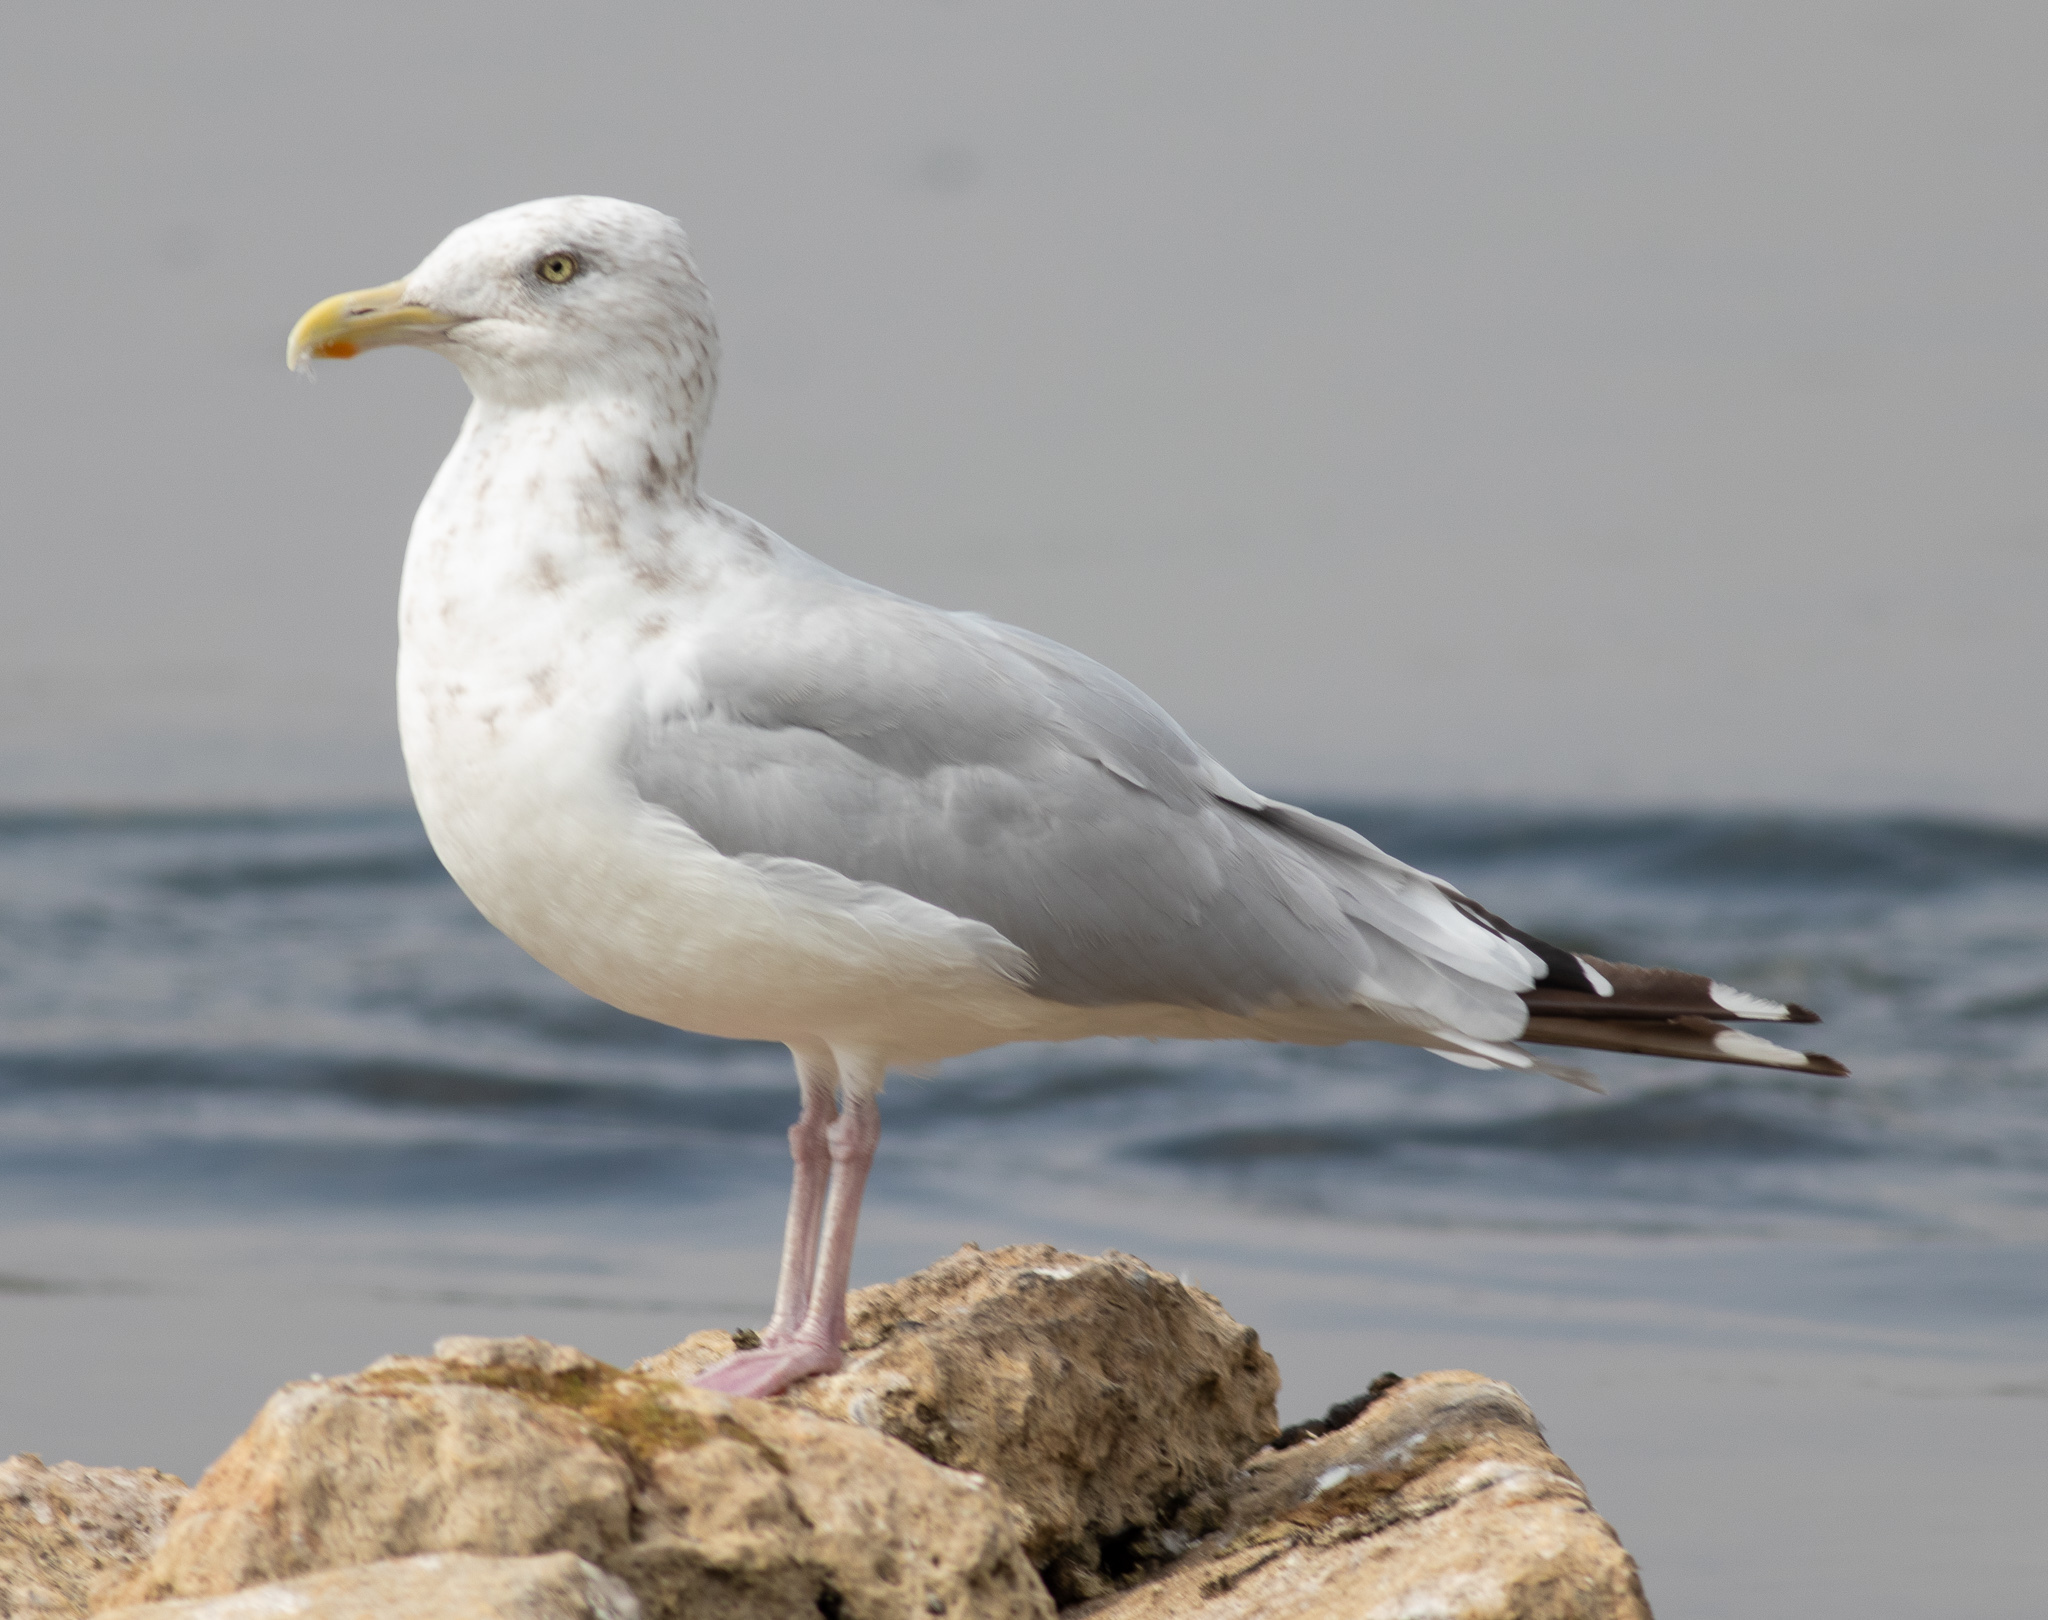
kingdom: Animalia
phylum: Chordata
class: Aves
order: Charadriiformes
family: Laridae
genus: Larus
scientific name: Larus argentatus
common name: Herring gull
